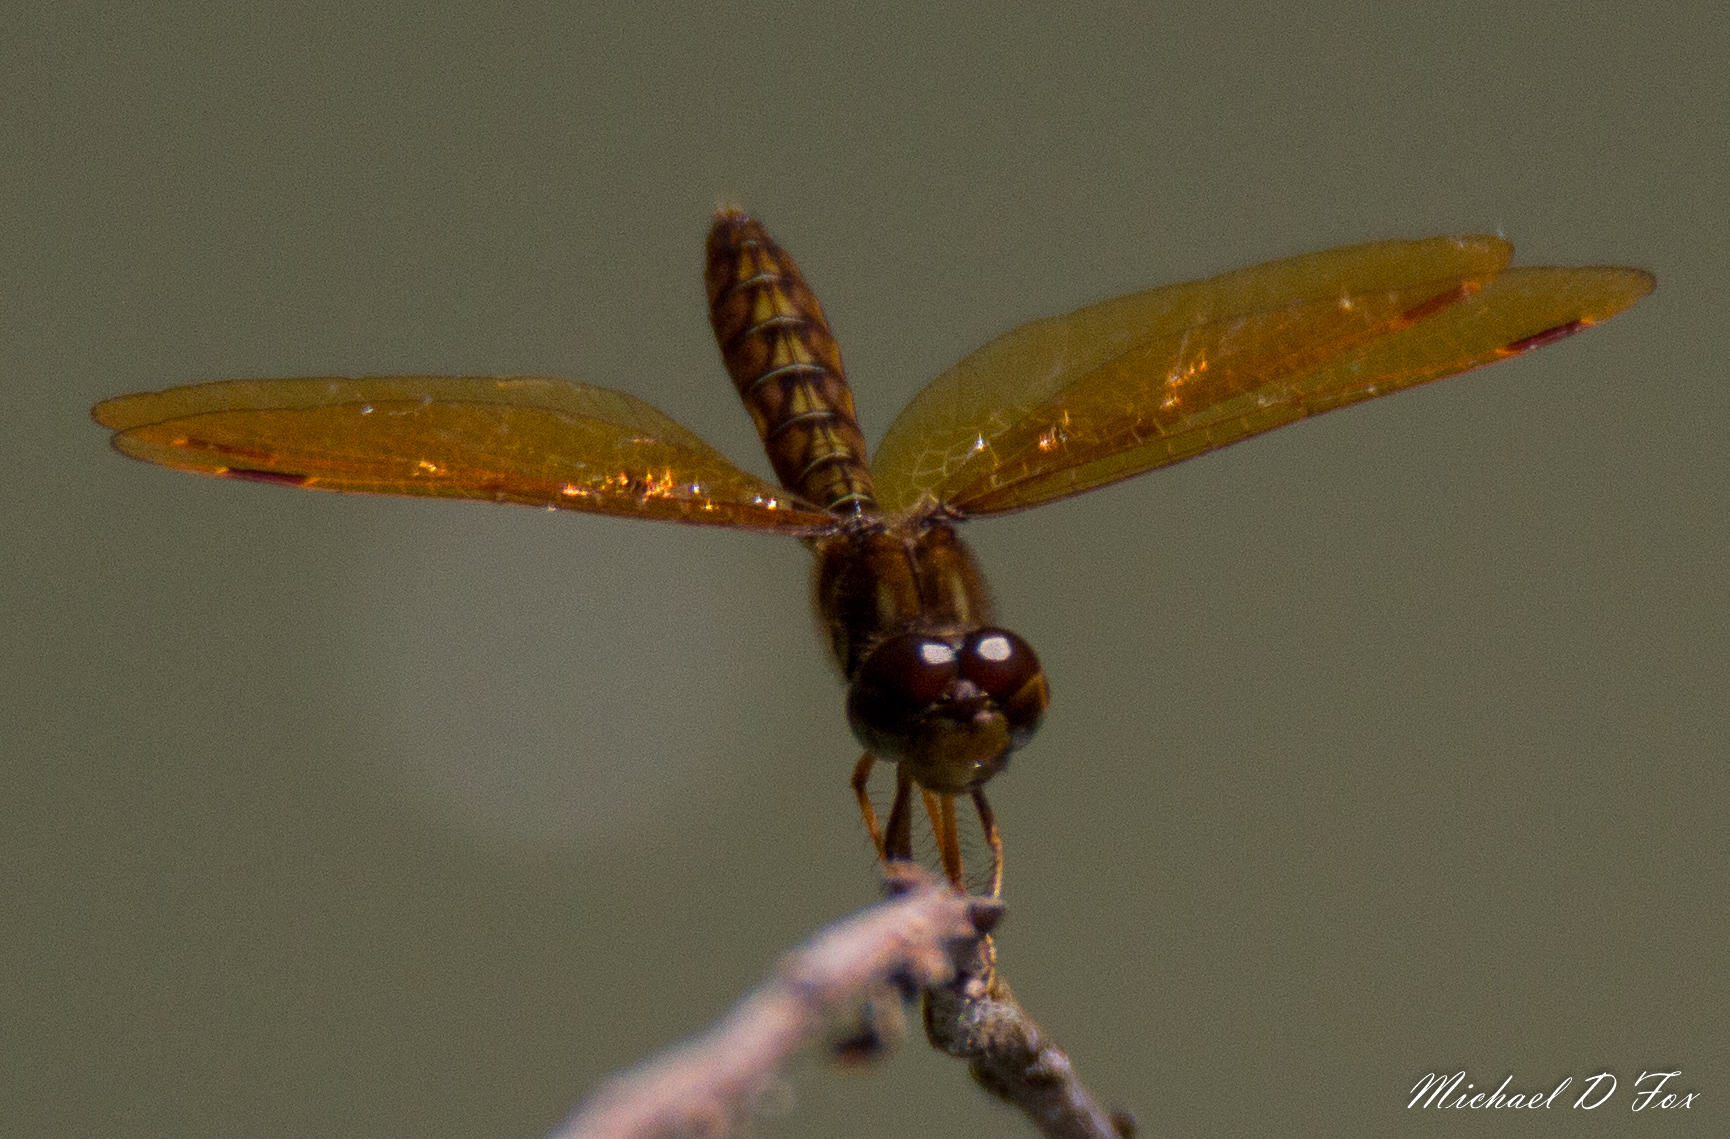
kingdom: Animalia
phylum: Arthropoda
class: Insecta
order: Odonata
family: Libellulidae
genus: Perithemis
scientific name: Perithemis tenera
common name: Eastern amberwing
